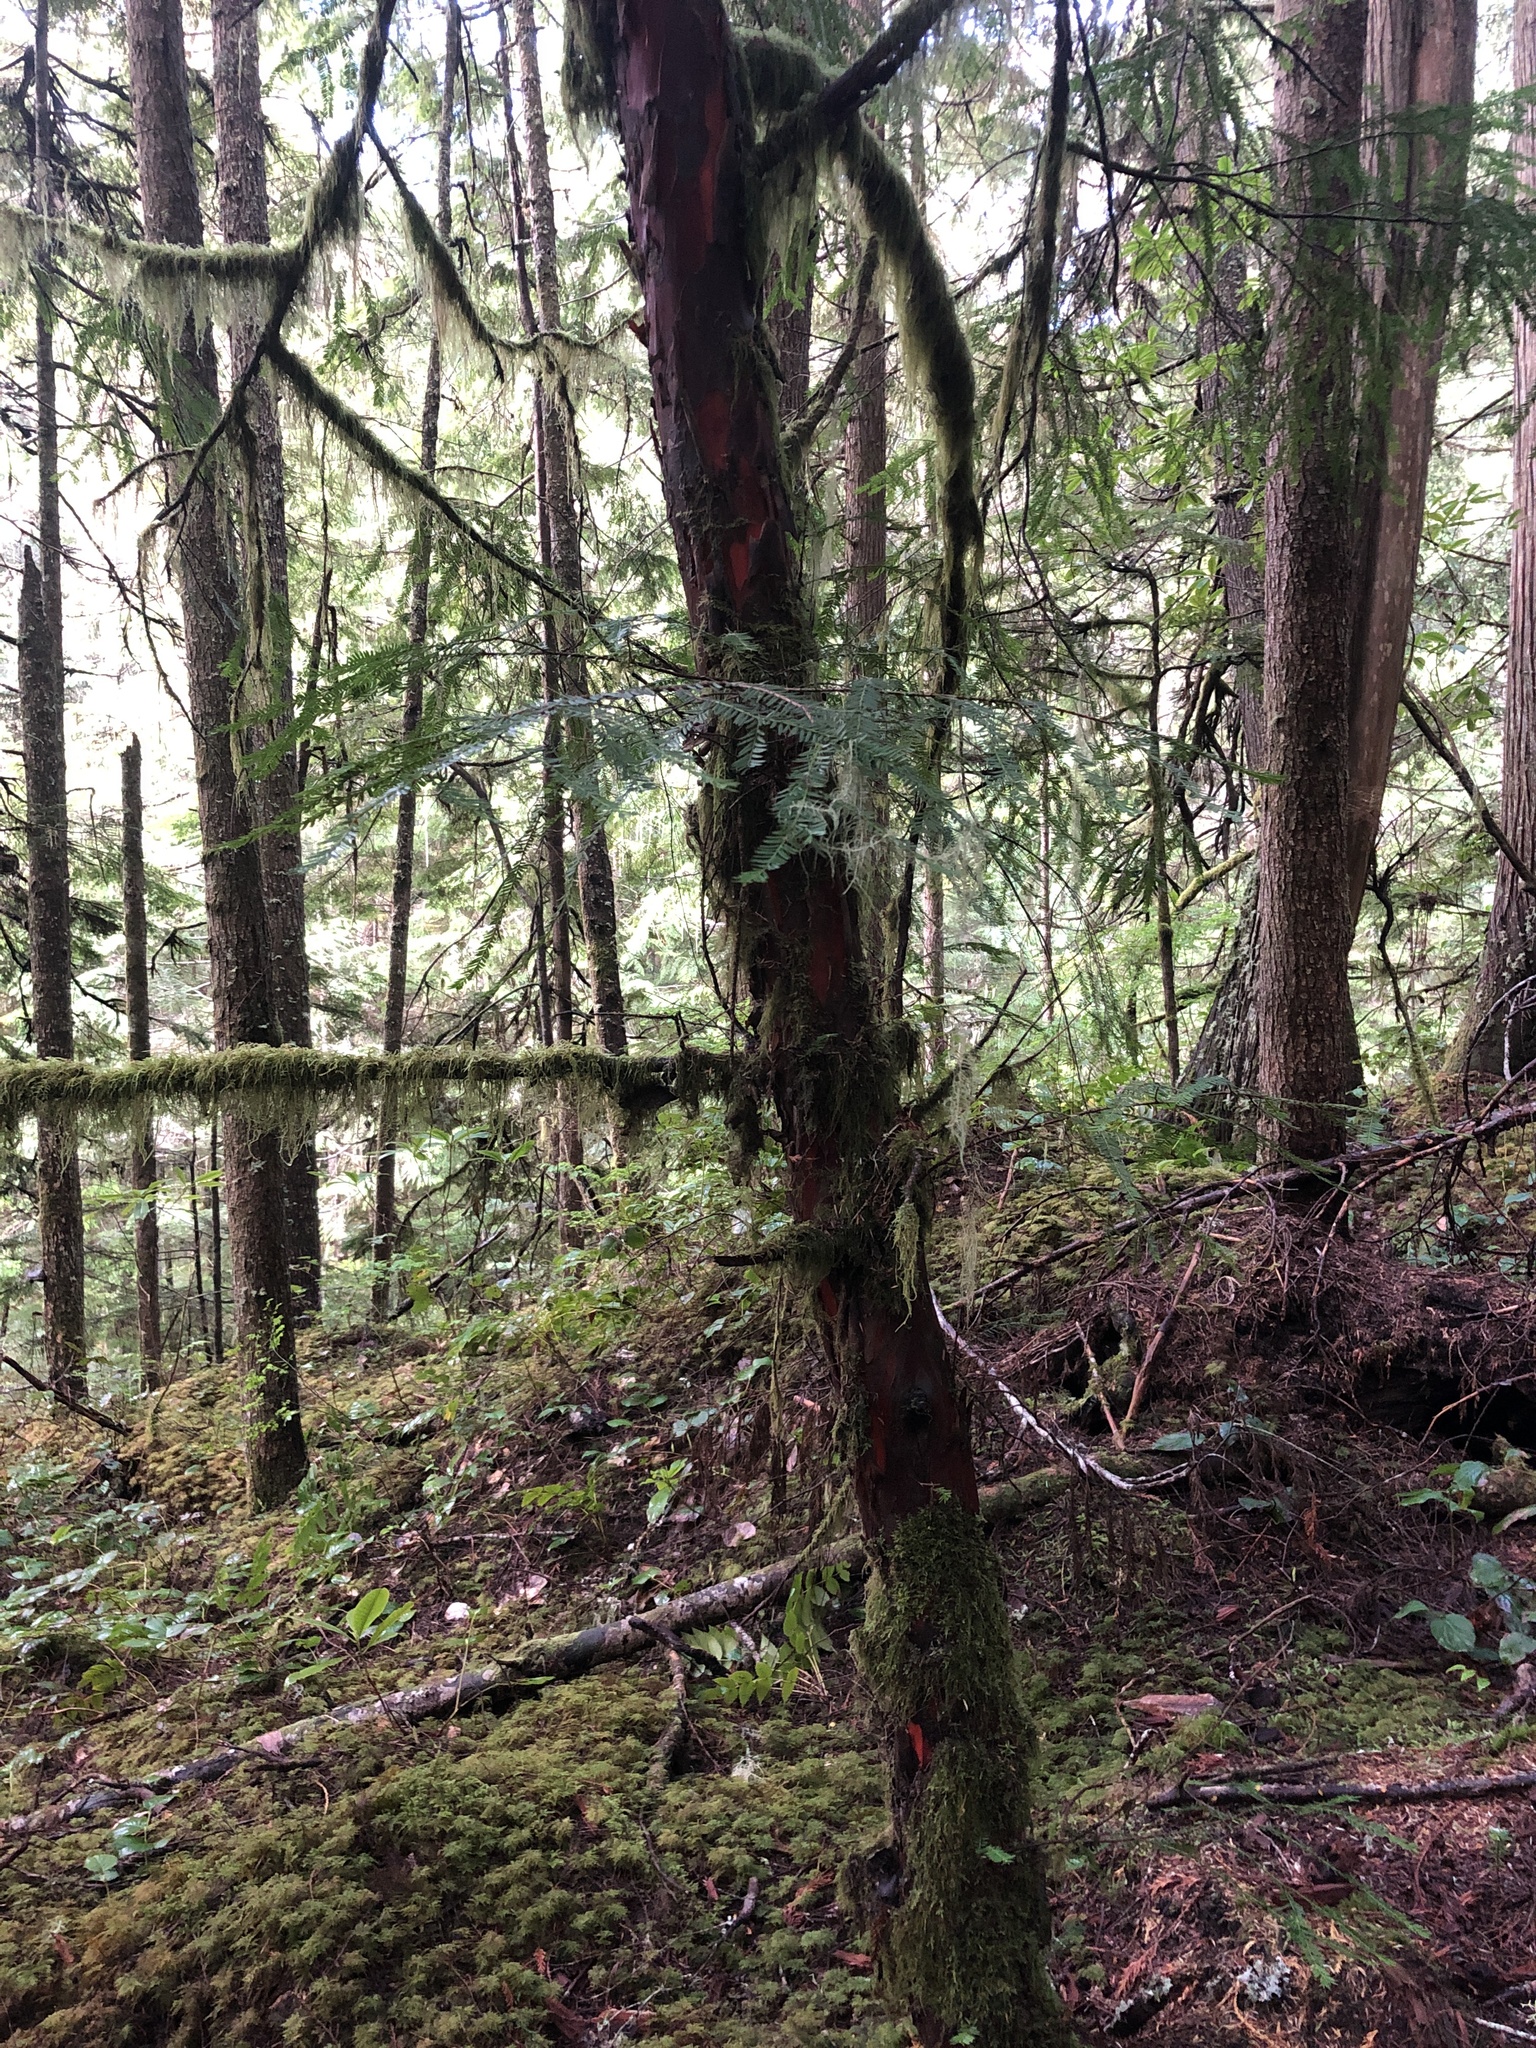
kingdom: Plantae
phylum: Tracheophyta
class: Pinopsida
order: Pinales
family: Taxaceae
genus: Taxus
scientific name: Taxus brevifolia
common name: Pacific yew
